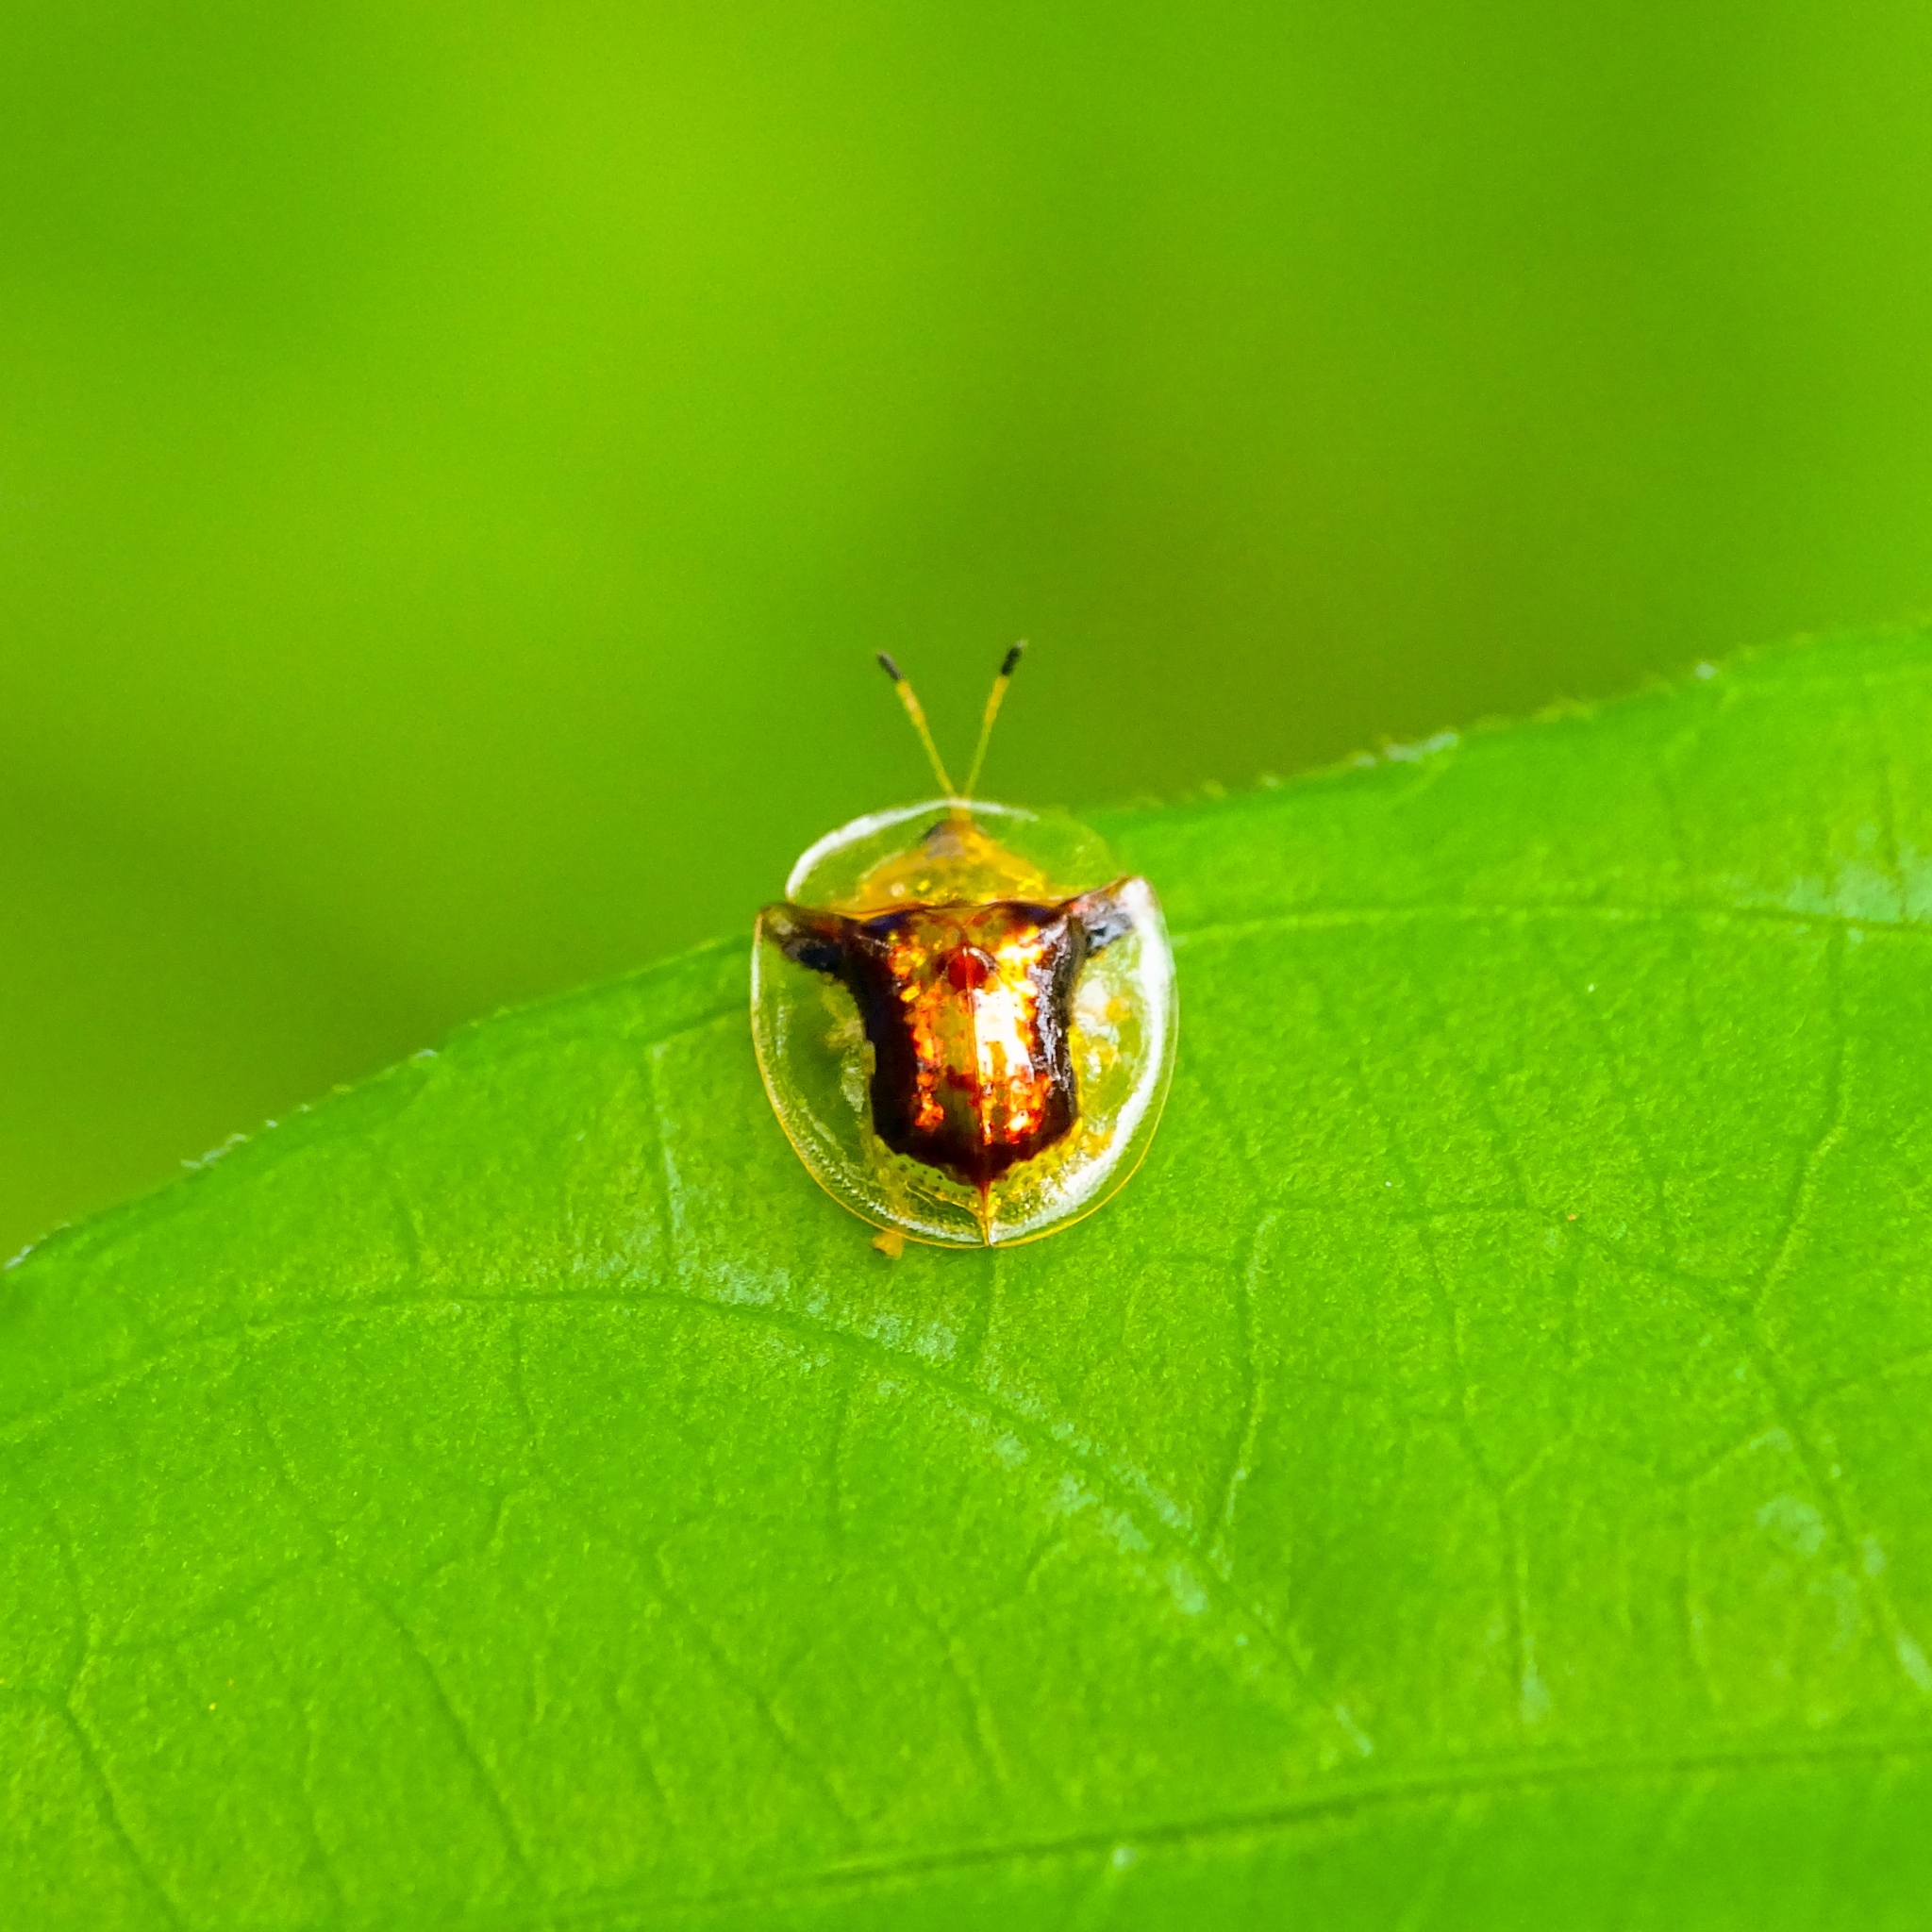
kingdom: Animalia
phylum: Arthropoda
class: Insecta
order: Coleoptera
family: Chrysomelidae
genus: Aspidimorpha
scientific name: Aspidimorpha furcata
